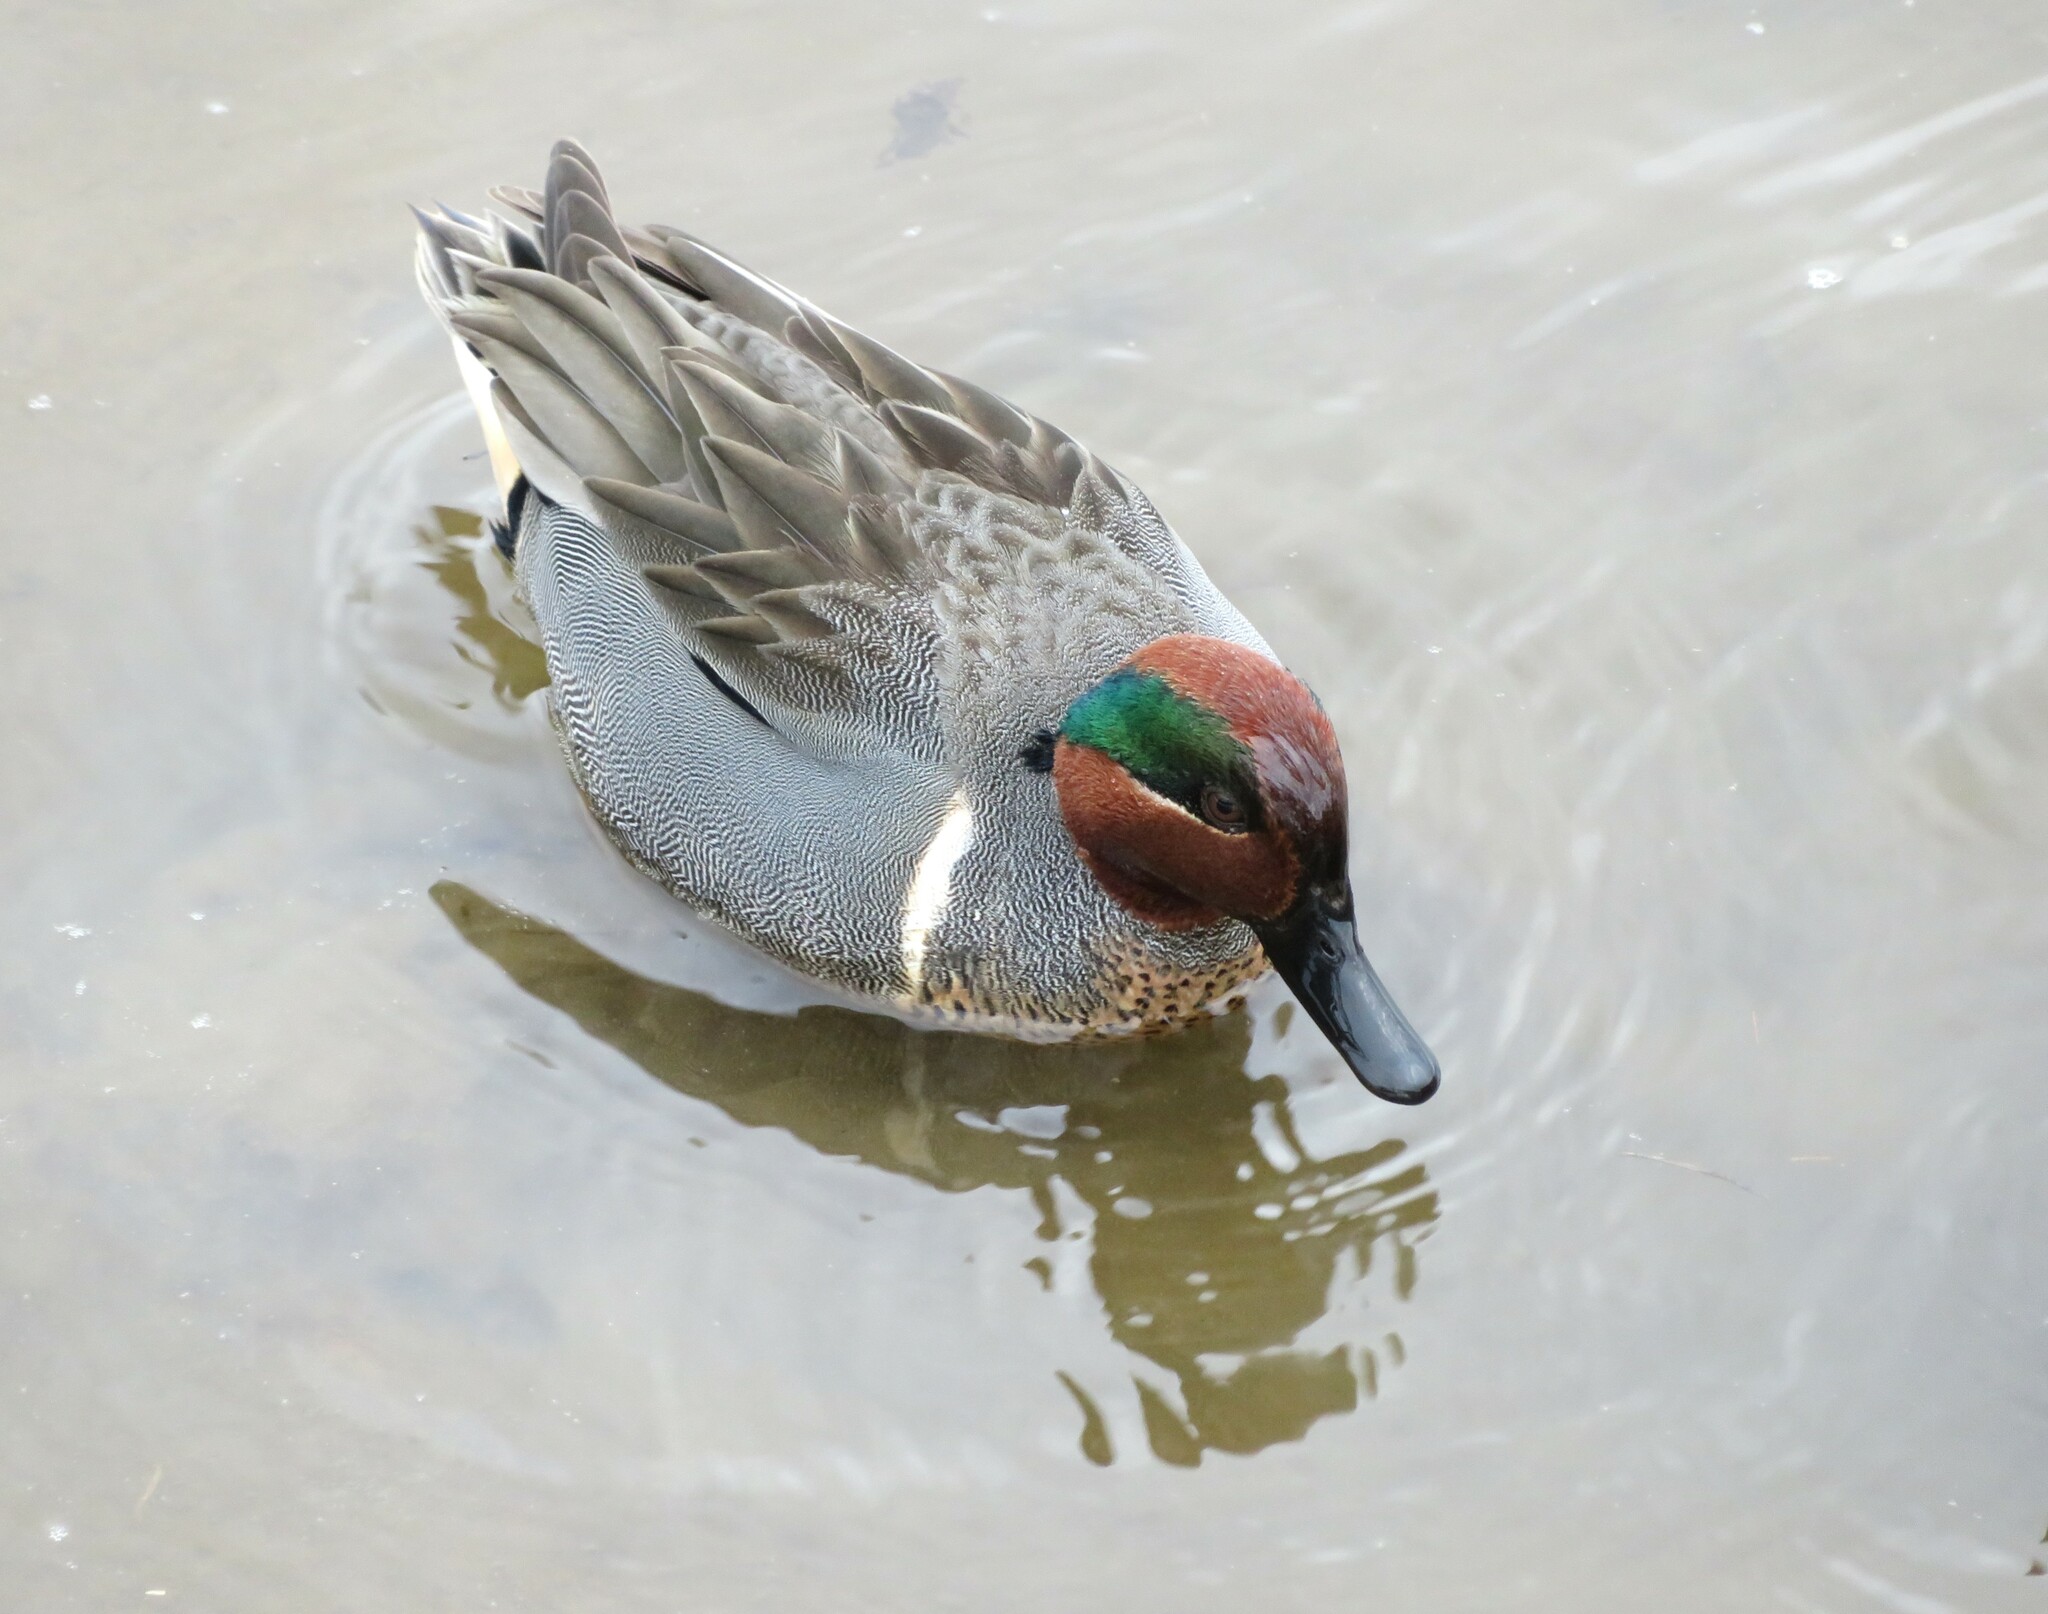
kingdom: Animalia
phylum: Chordata
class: Aves
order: Anseriformes
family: Anatidae
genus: Anas
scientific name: Anas crecca
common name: Eurasian teal
